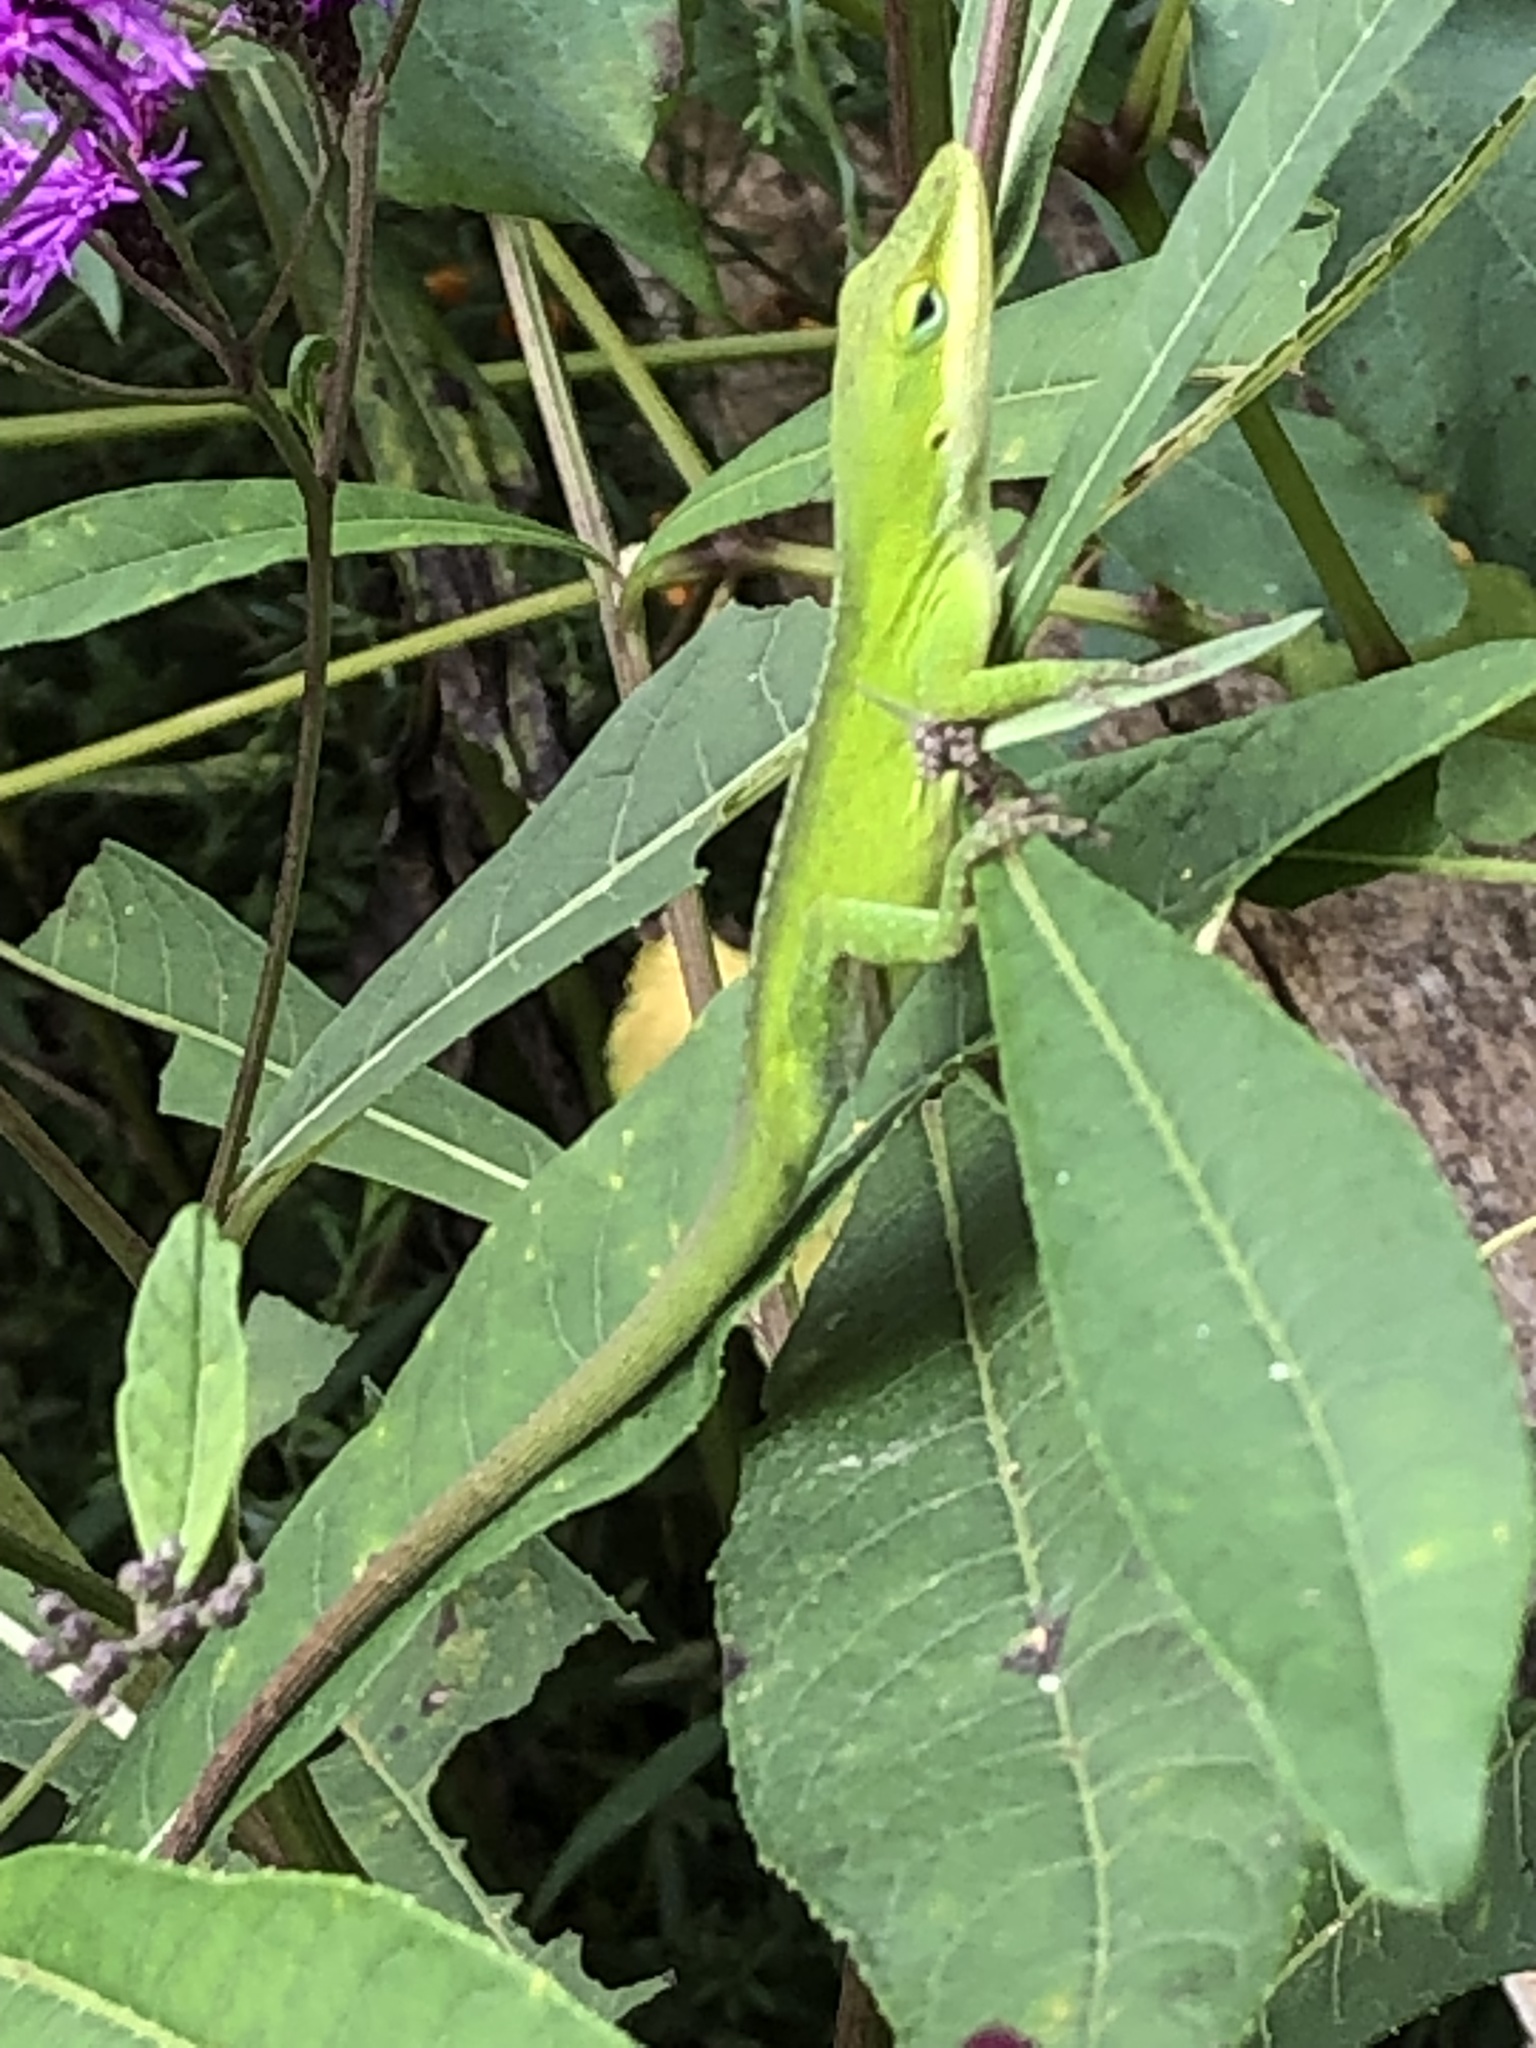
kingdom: Animalia
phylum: Chordata
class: Squamata
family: Dactyloidae
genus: Anolis
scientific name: Anolis carolinensis
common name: Green anole
